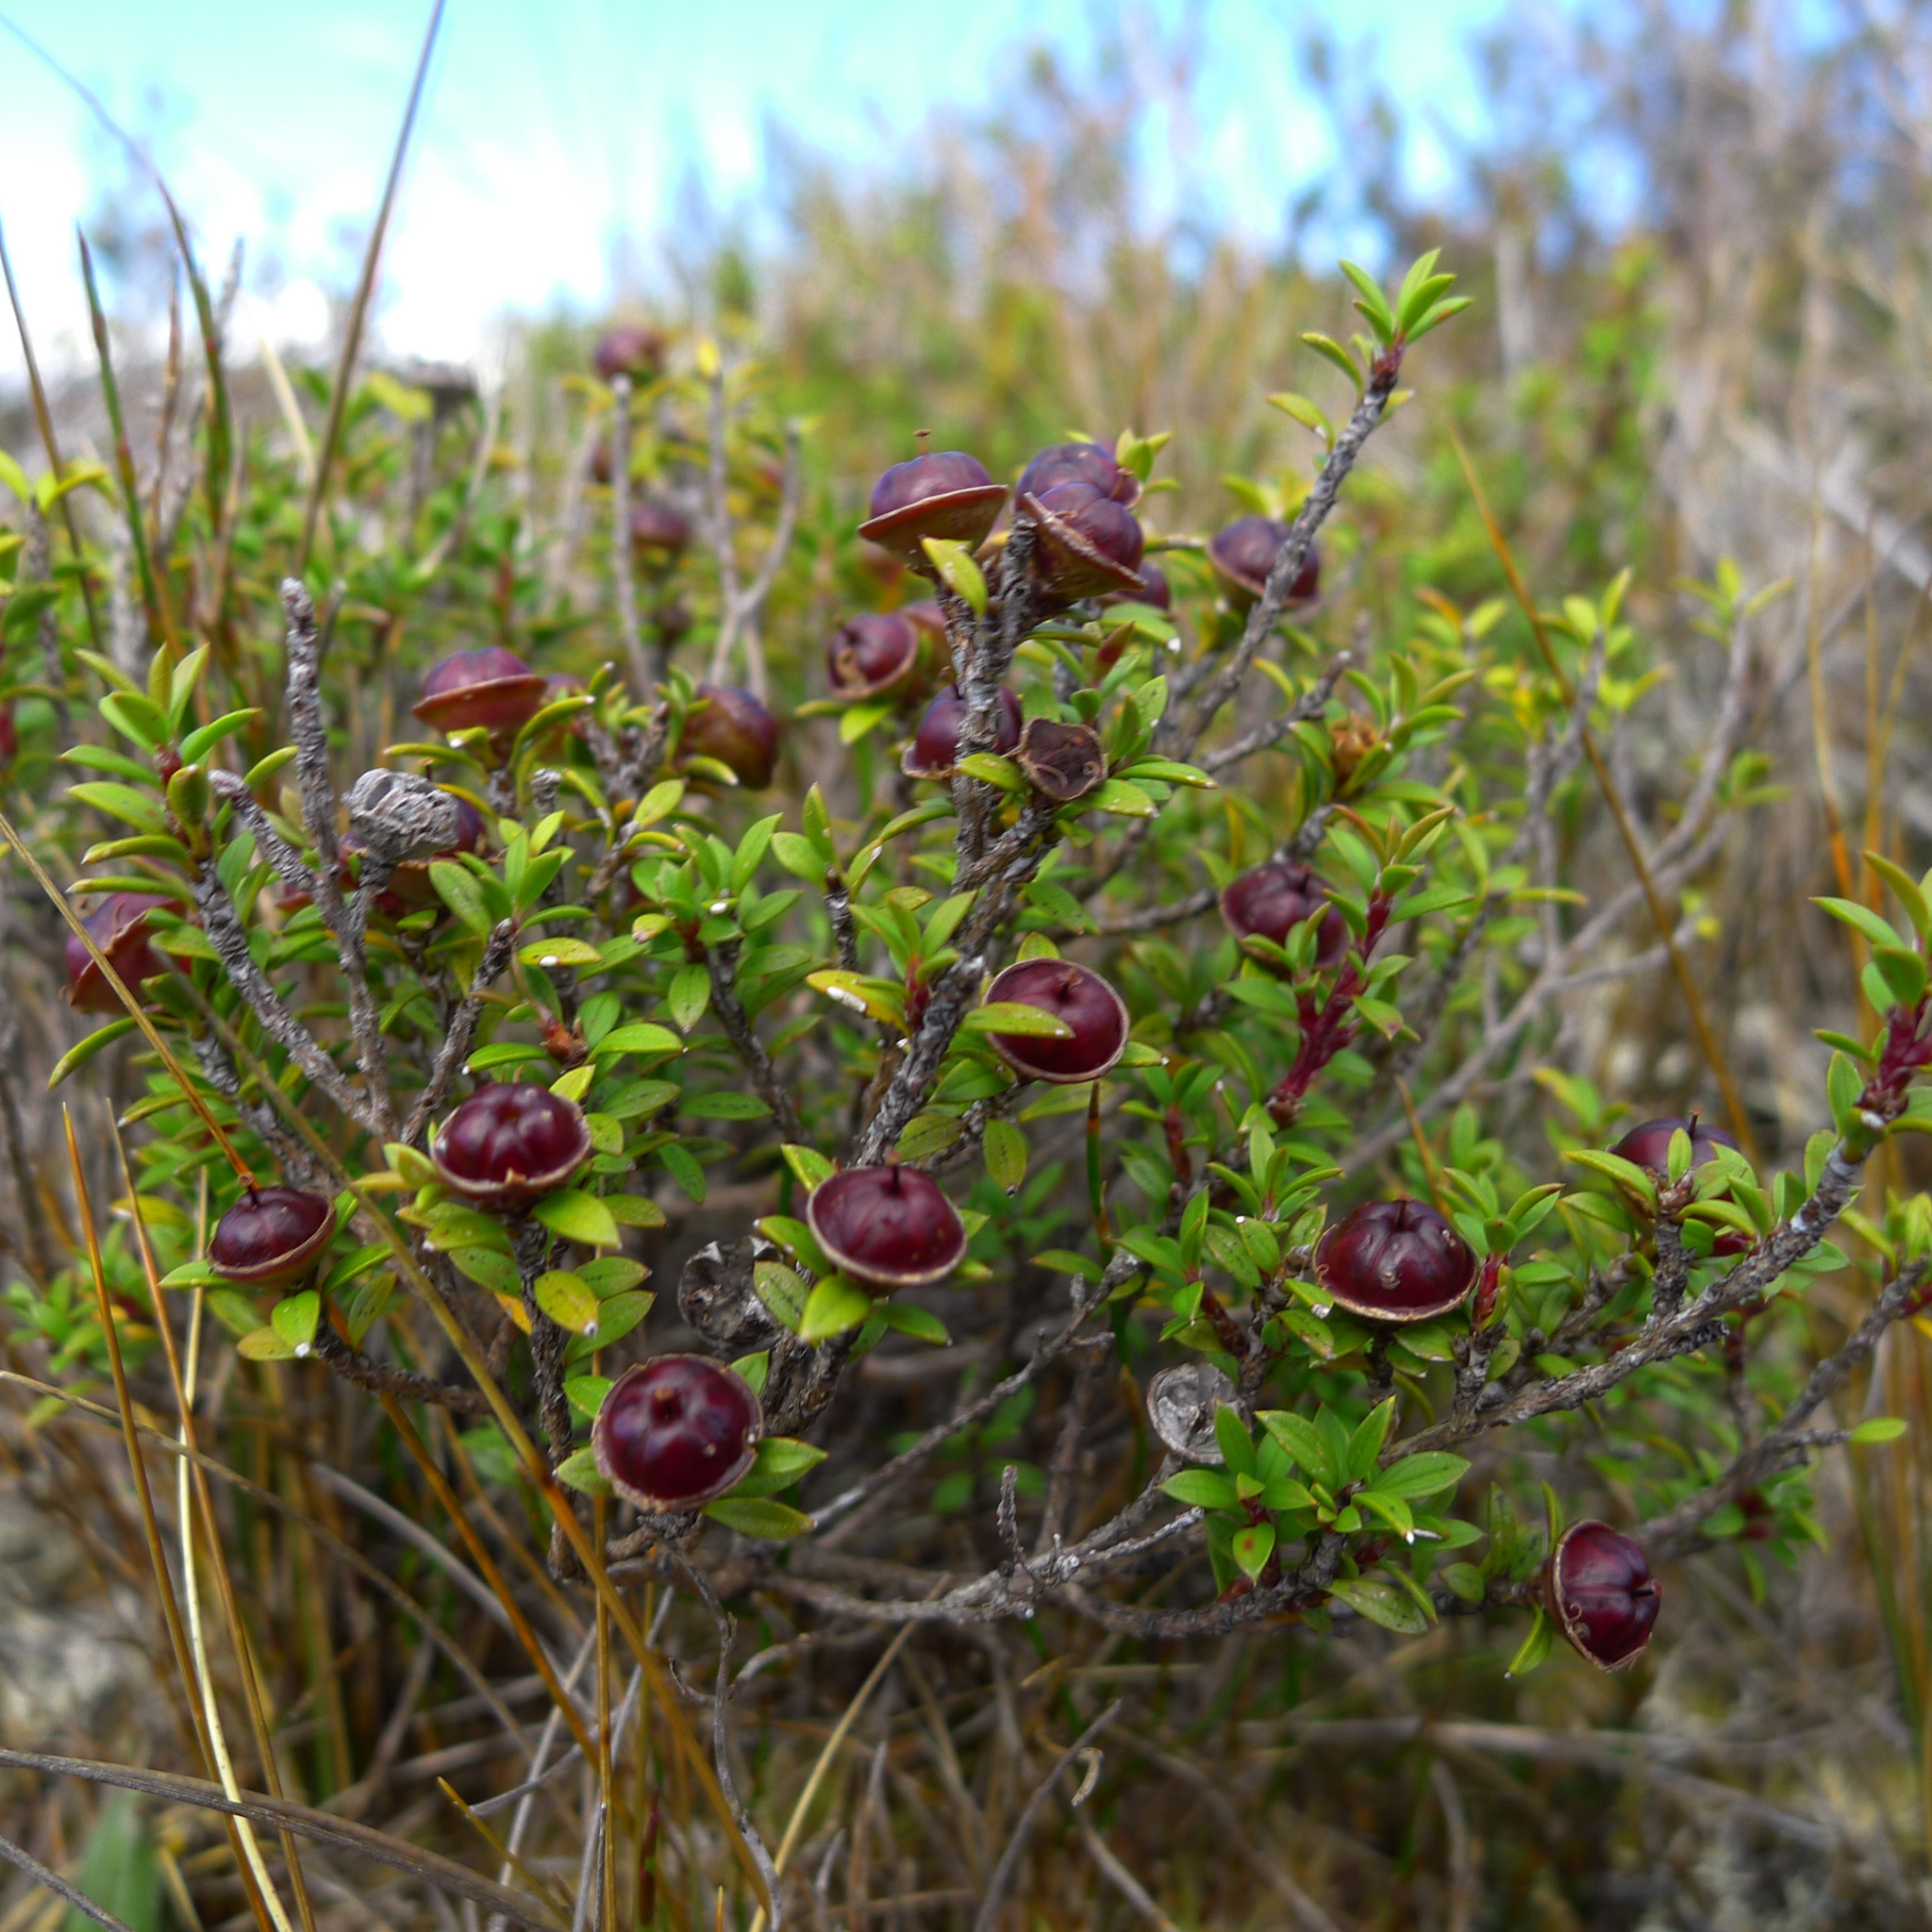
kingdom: Plantae
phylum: Tracheophyta
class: Magnoliopsida
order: Myrtales
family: Myrtaceae
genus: Leptospermum
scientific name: Leptospermum scoparium
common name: Broom tea-tree
